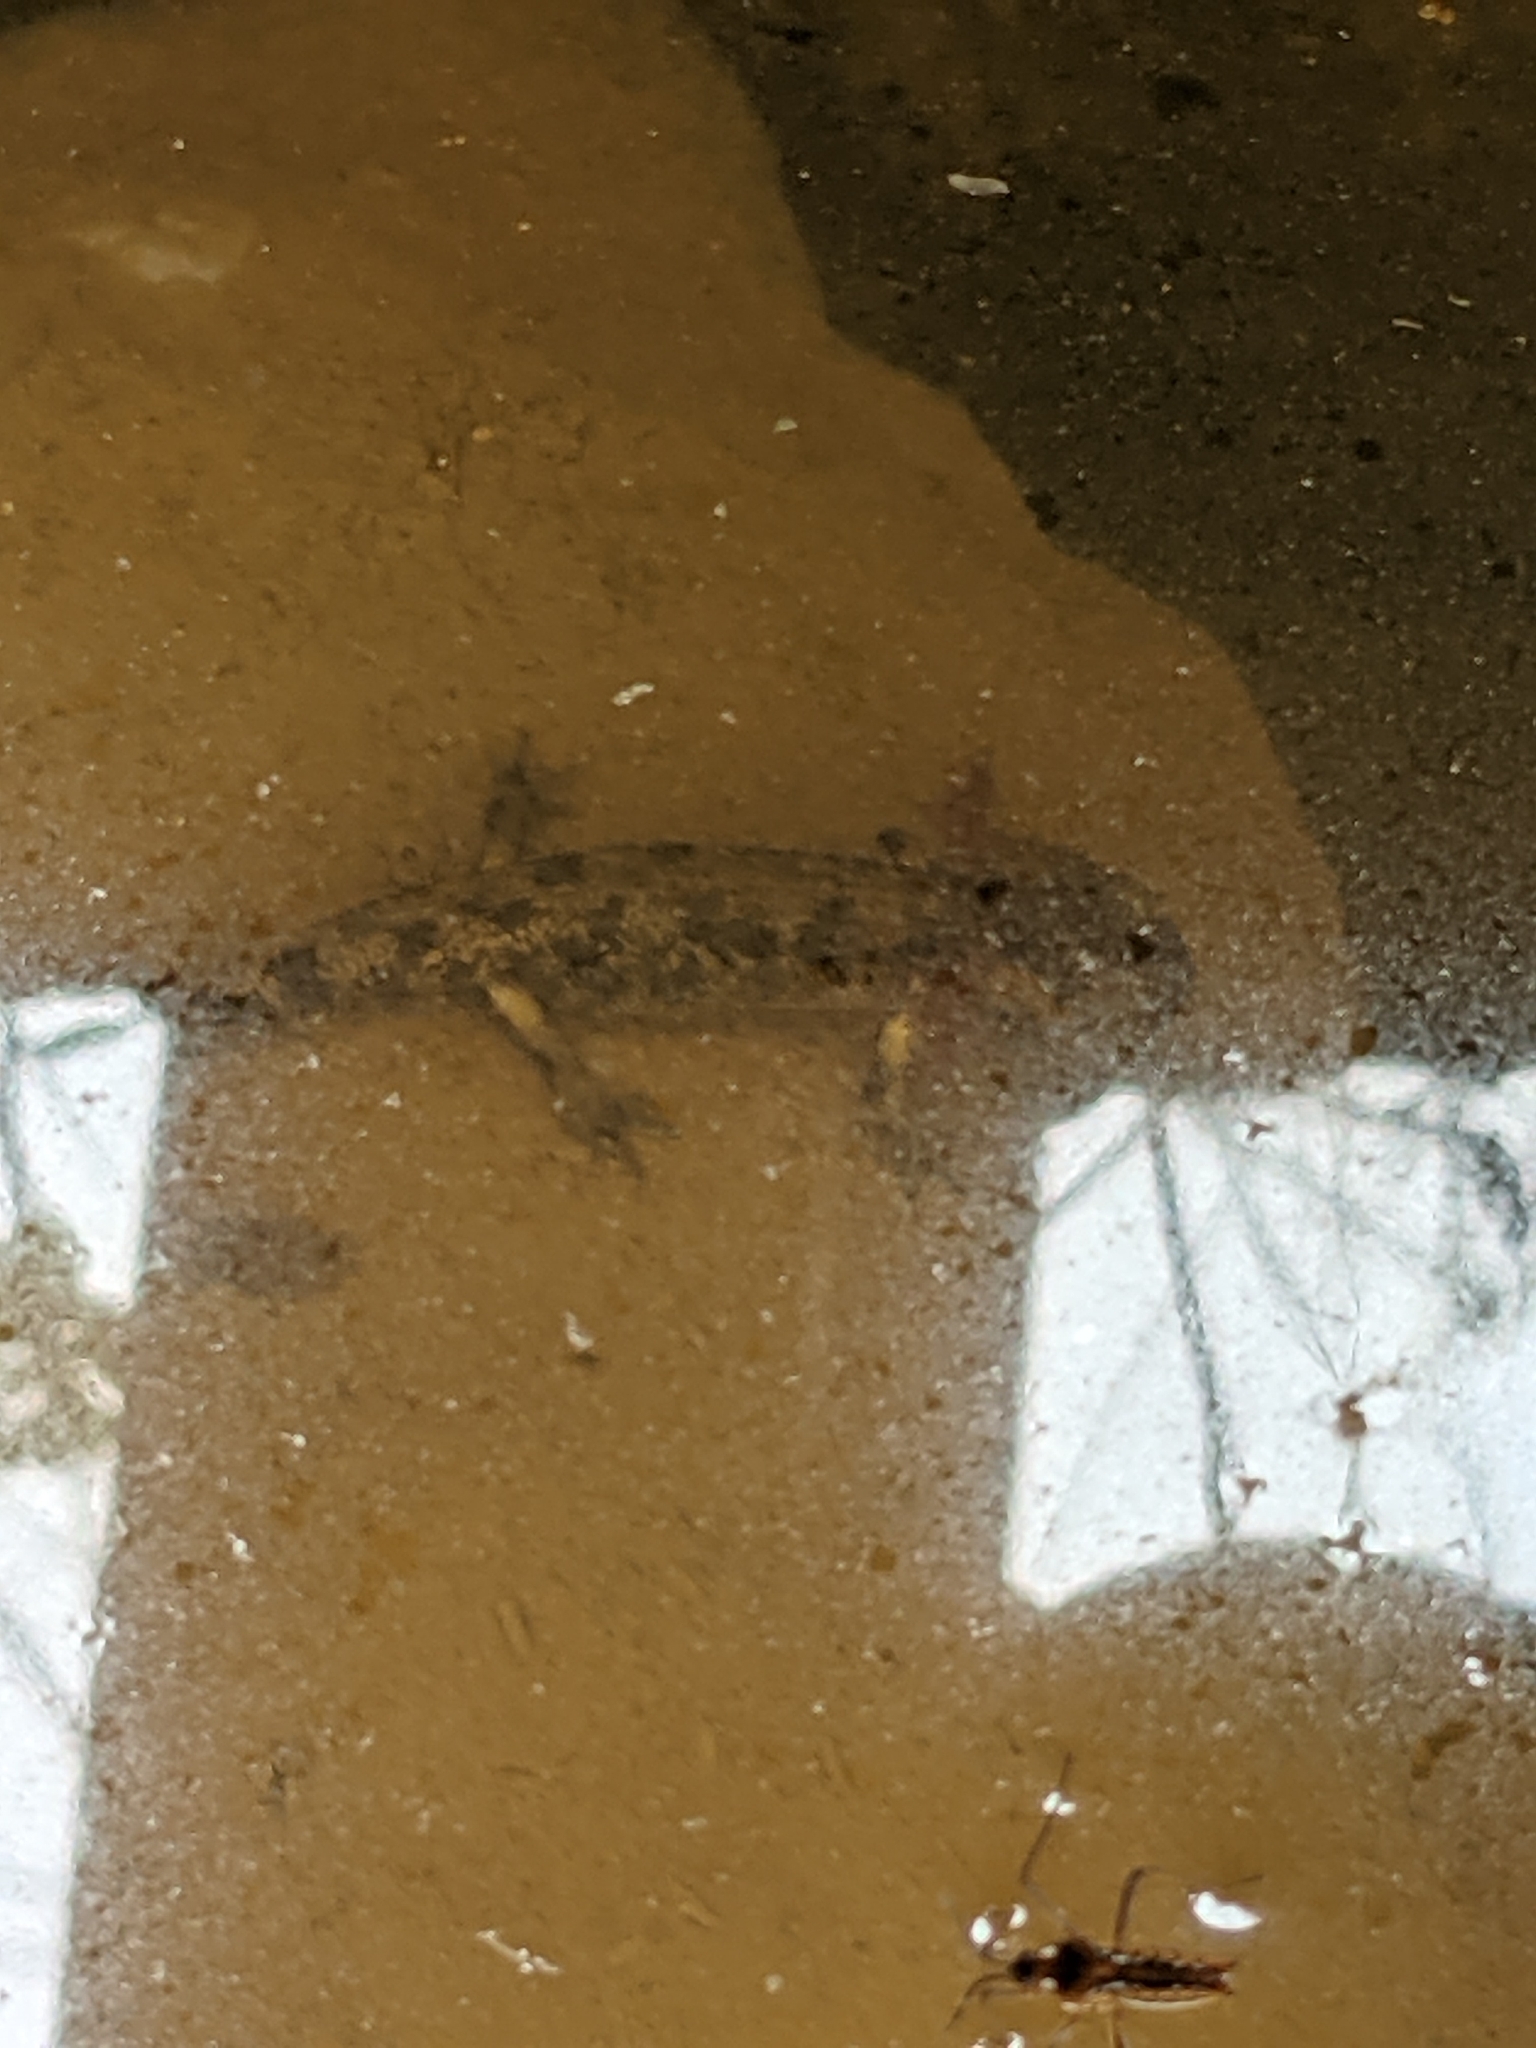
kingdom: Animalia
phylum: Chordata
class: Amphibia
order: Caudata
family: Salamandridae
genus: Salamandra
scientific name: Salamandra salamandra
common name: Fire salamander
